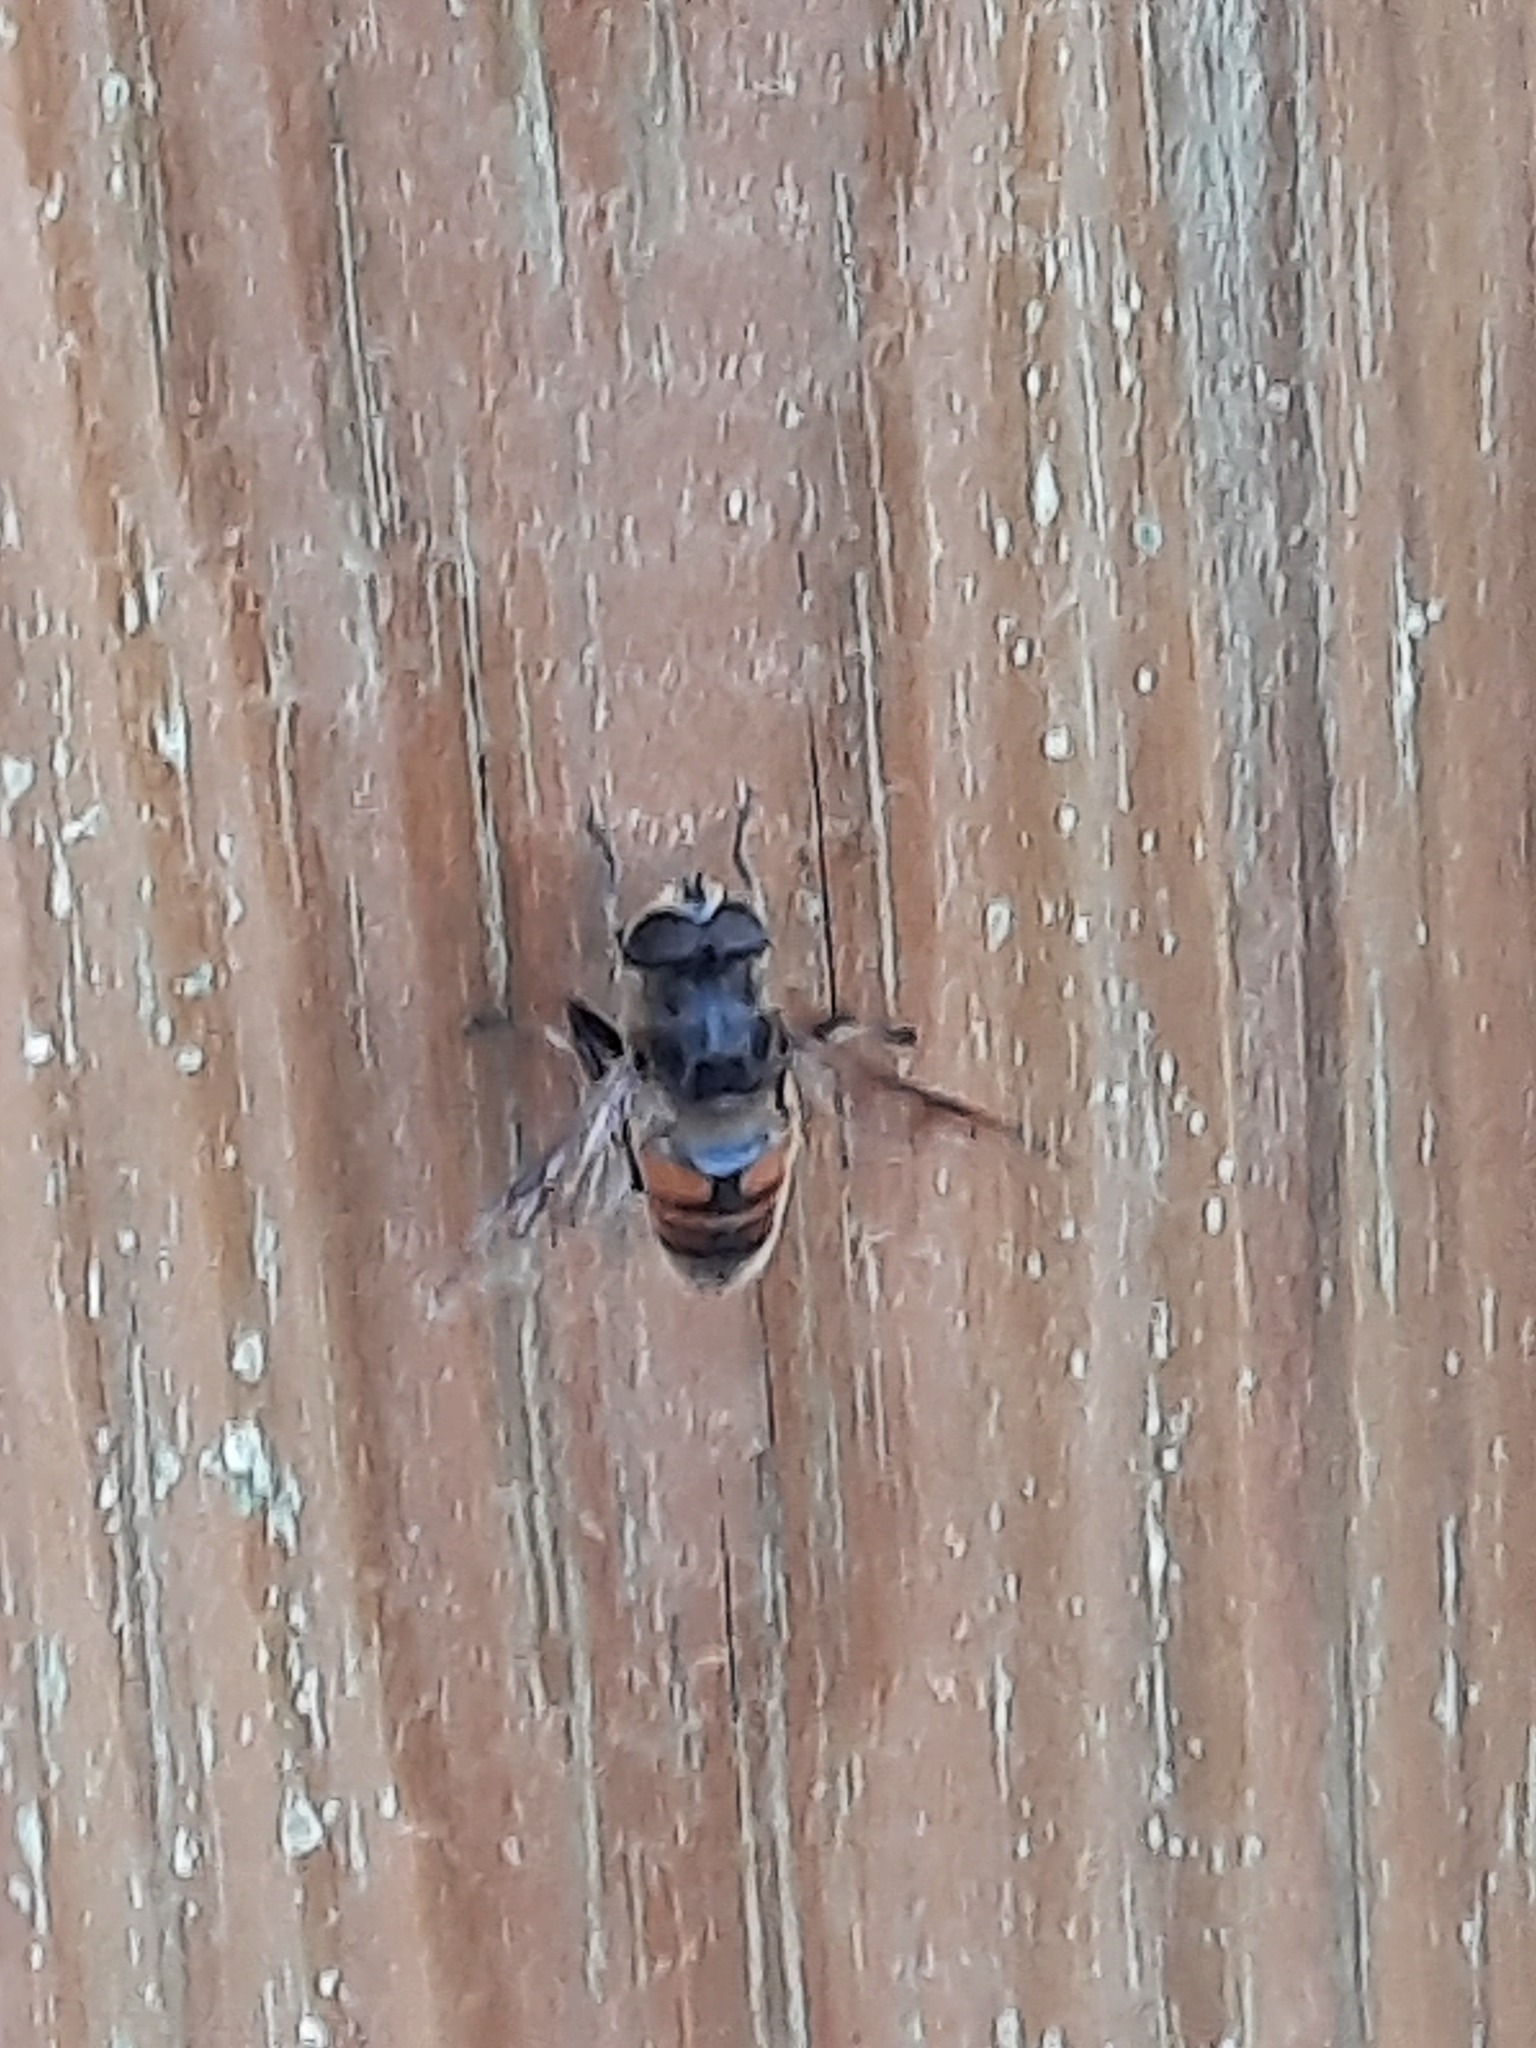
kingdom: Animalia
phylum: Arthropoda
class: Insecta
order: Diptera
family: Syrphidae
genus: Eristalis
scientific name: Eristalis tenax
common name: Drone fly
